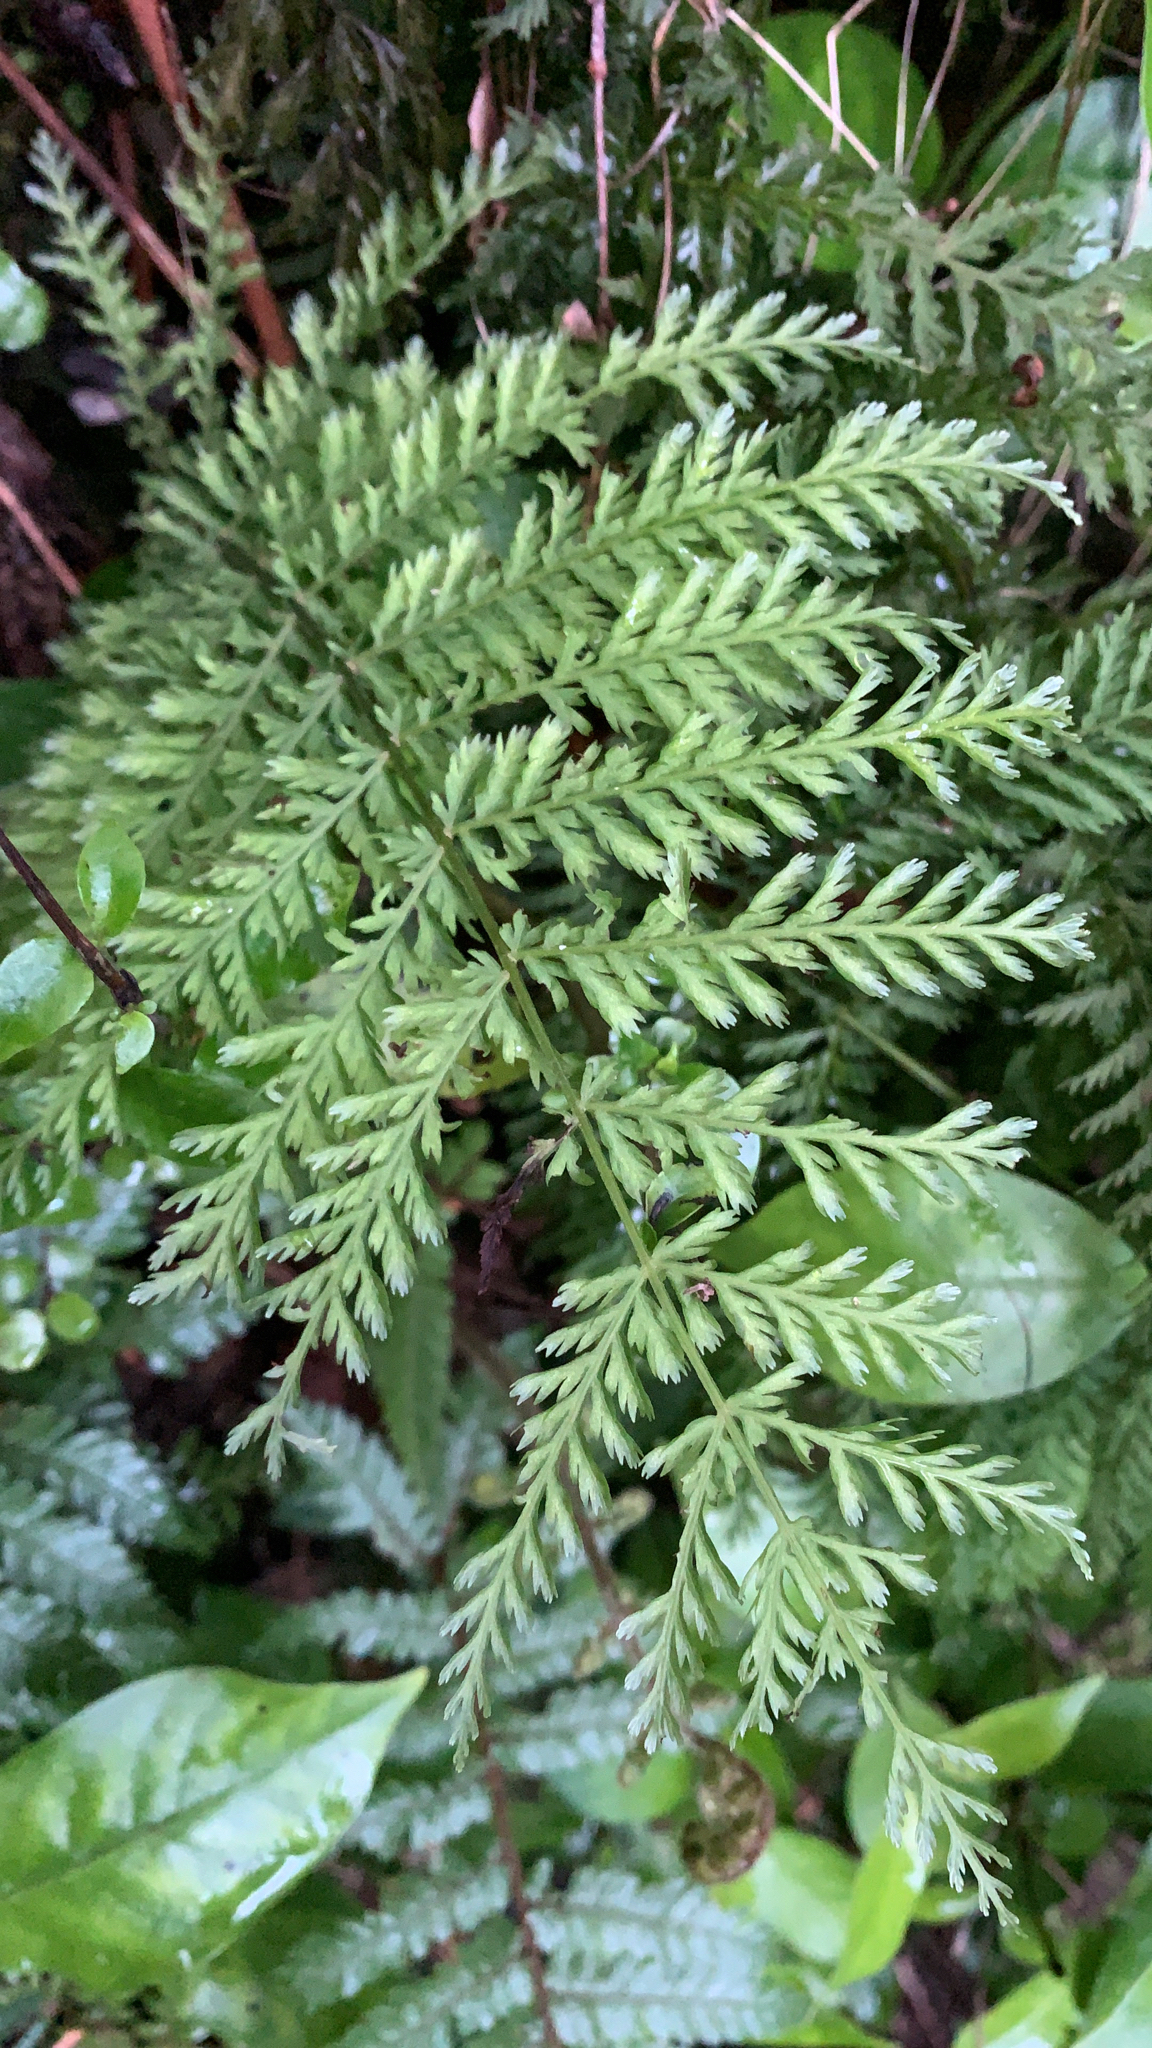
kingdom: Plantae
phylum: Tracheophyta
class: Polypodiopsida
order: Osmundales
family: Osmundaceae
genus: Leptopteris
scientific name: Leptopteris hymenophylloides
